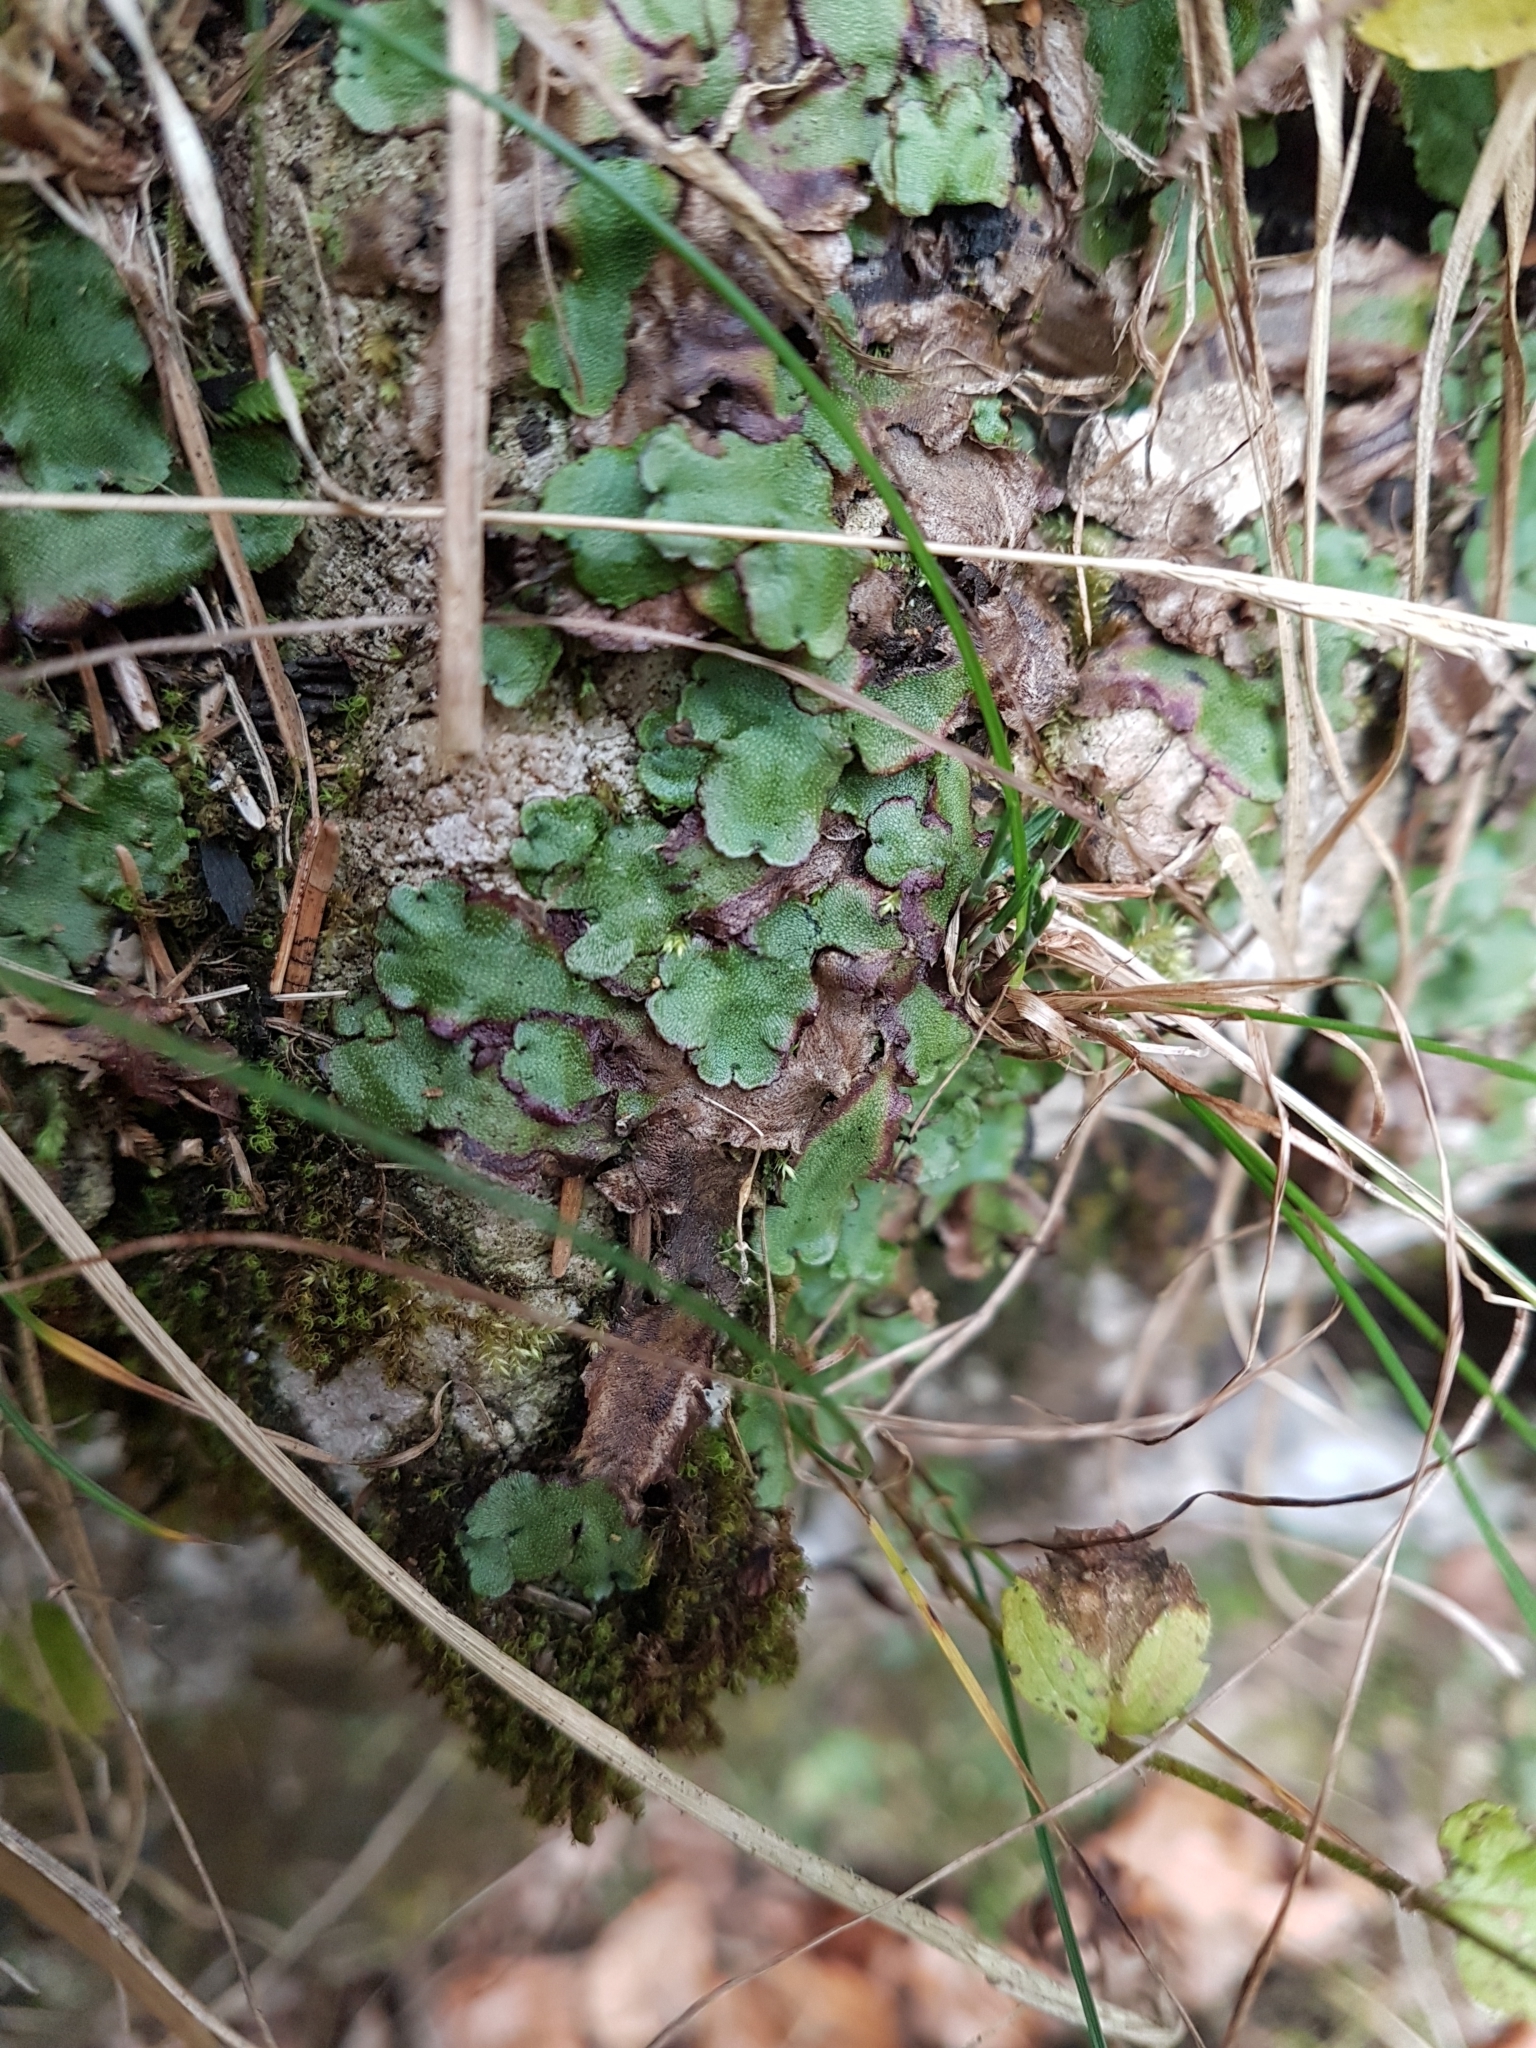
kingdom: Plantae
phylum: Marchantiophyta
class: Marchantiopsida
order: Marchantiales
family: Marchantiaceae
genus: Marchantia
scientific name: Marchantia quadrata
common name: Narrow mushroom-headed liverwort
